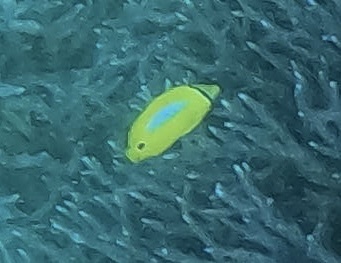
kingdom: Animalia
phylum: Chordata
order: Perciformes
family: Chaetodontidae
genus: Chaetodon
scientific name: Chaetodon plebeius
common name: Bluespot butterflyfish
